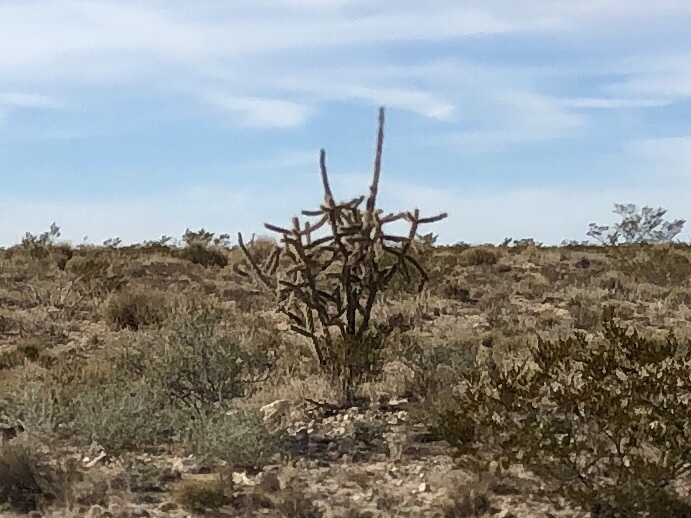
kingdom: Plantae
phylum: Tracheophyta
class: Magnoliopsida
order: Caryophyllales
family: Cactaceae
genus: Cylindropuntia
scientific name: Cylindropuntia imbricata
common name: Candelabrum cactus
